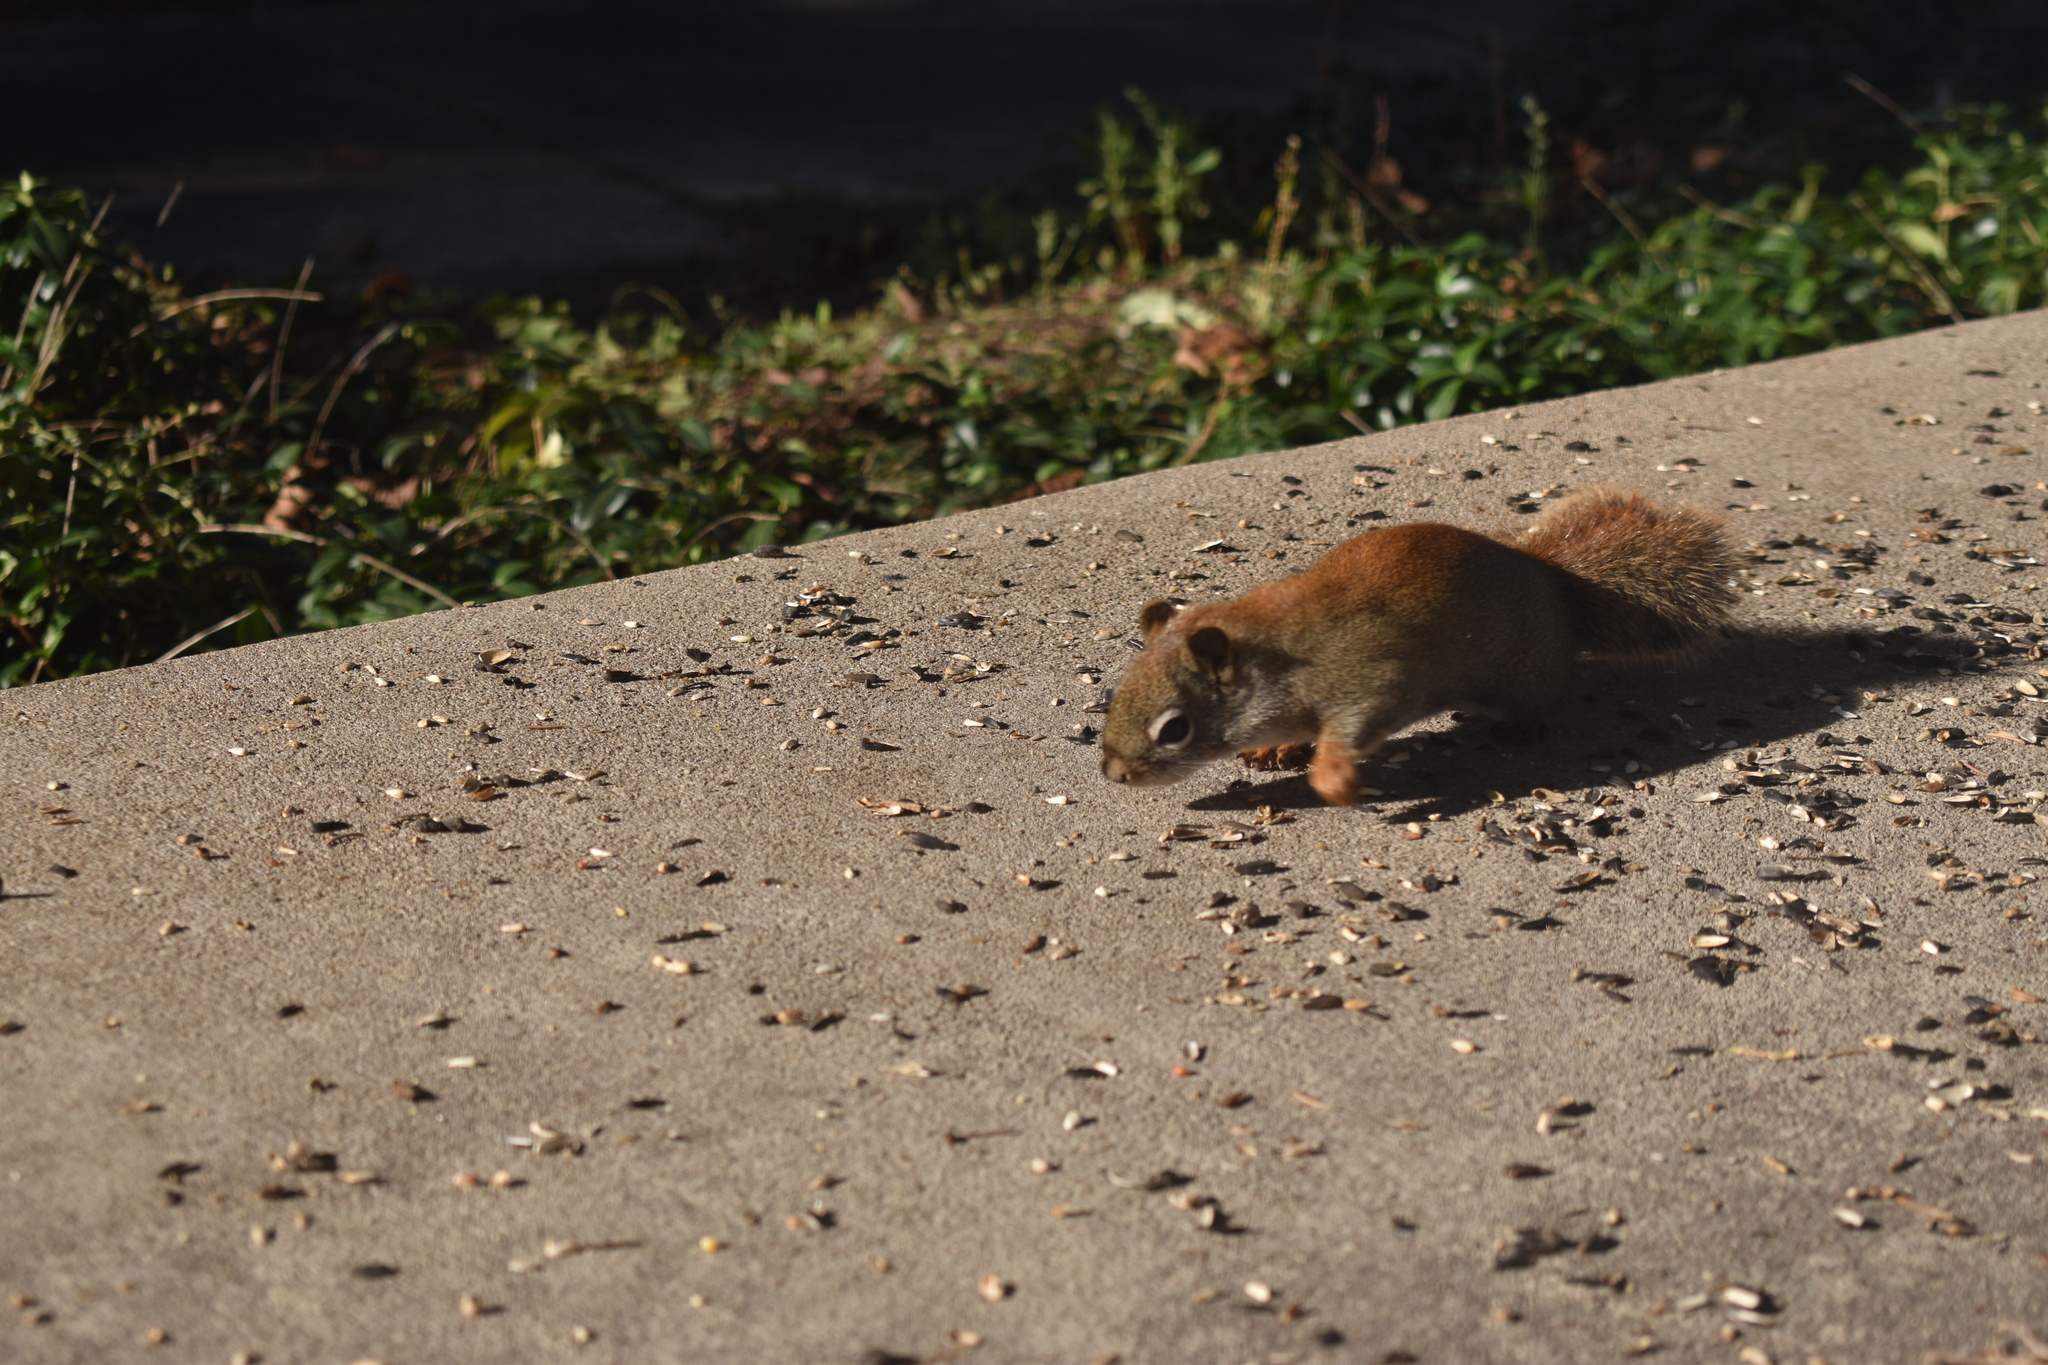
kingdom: Animalia
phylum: Chordata
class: Mammalia
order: Rodentia
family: Sciuridae
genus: Tamiasciurus
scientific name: Tamiasciurus hudsonicus
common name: Red squirrel
